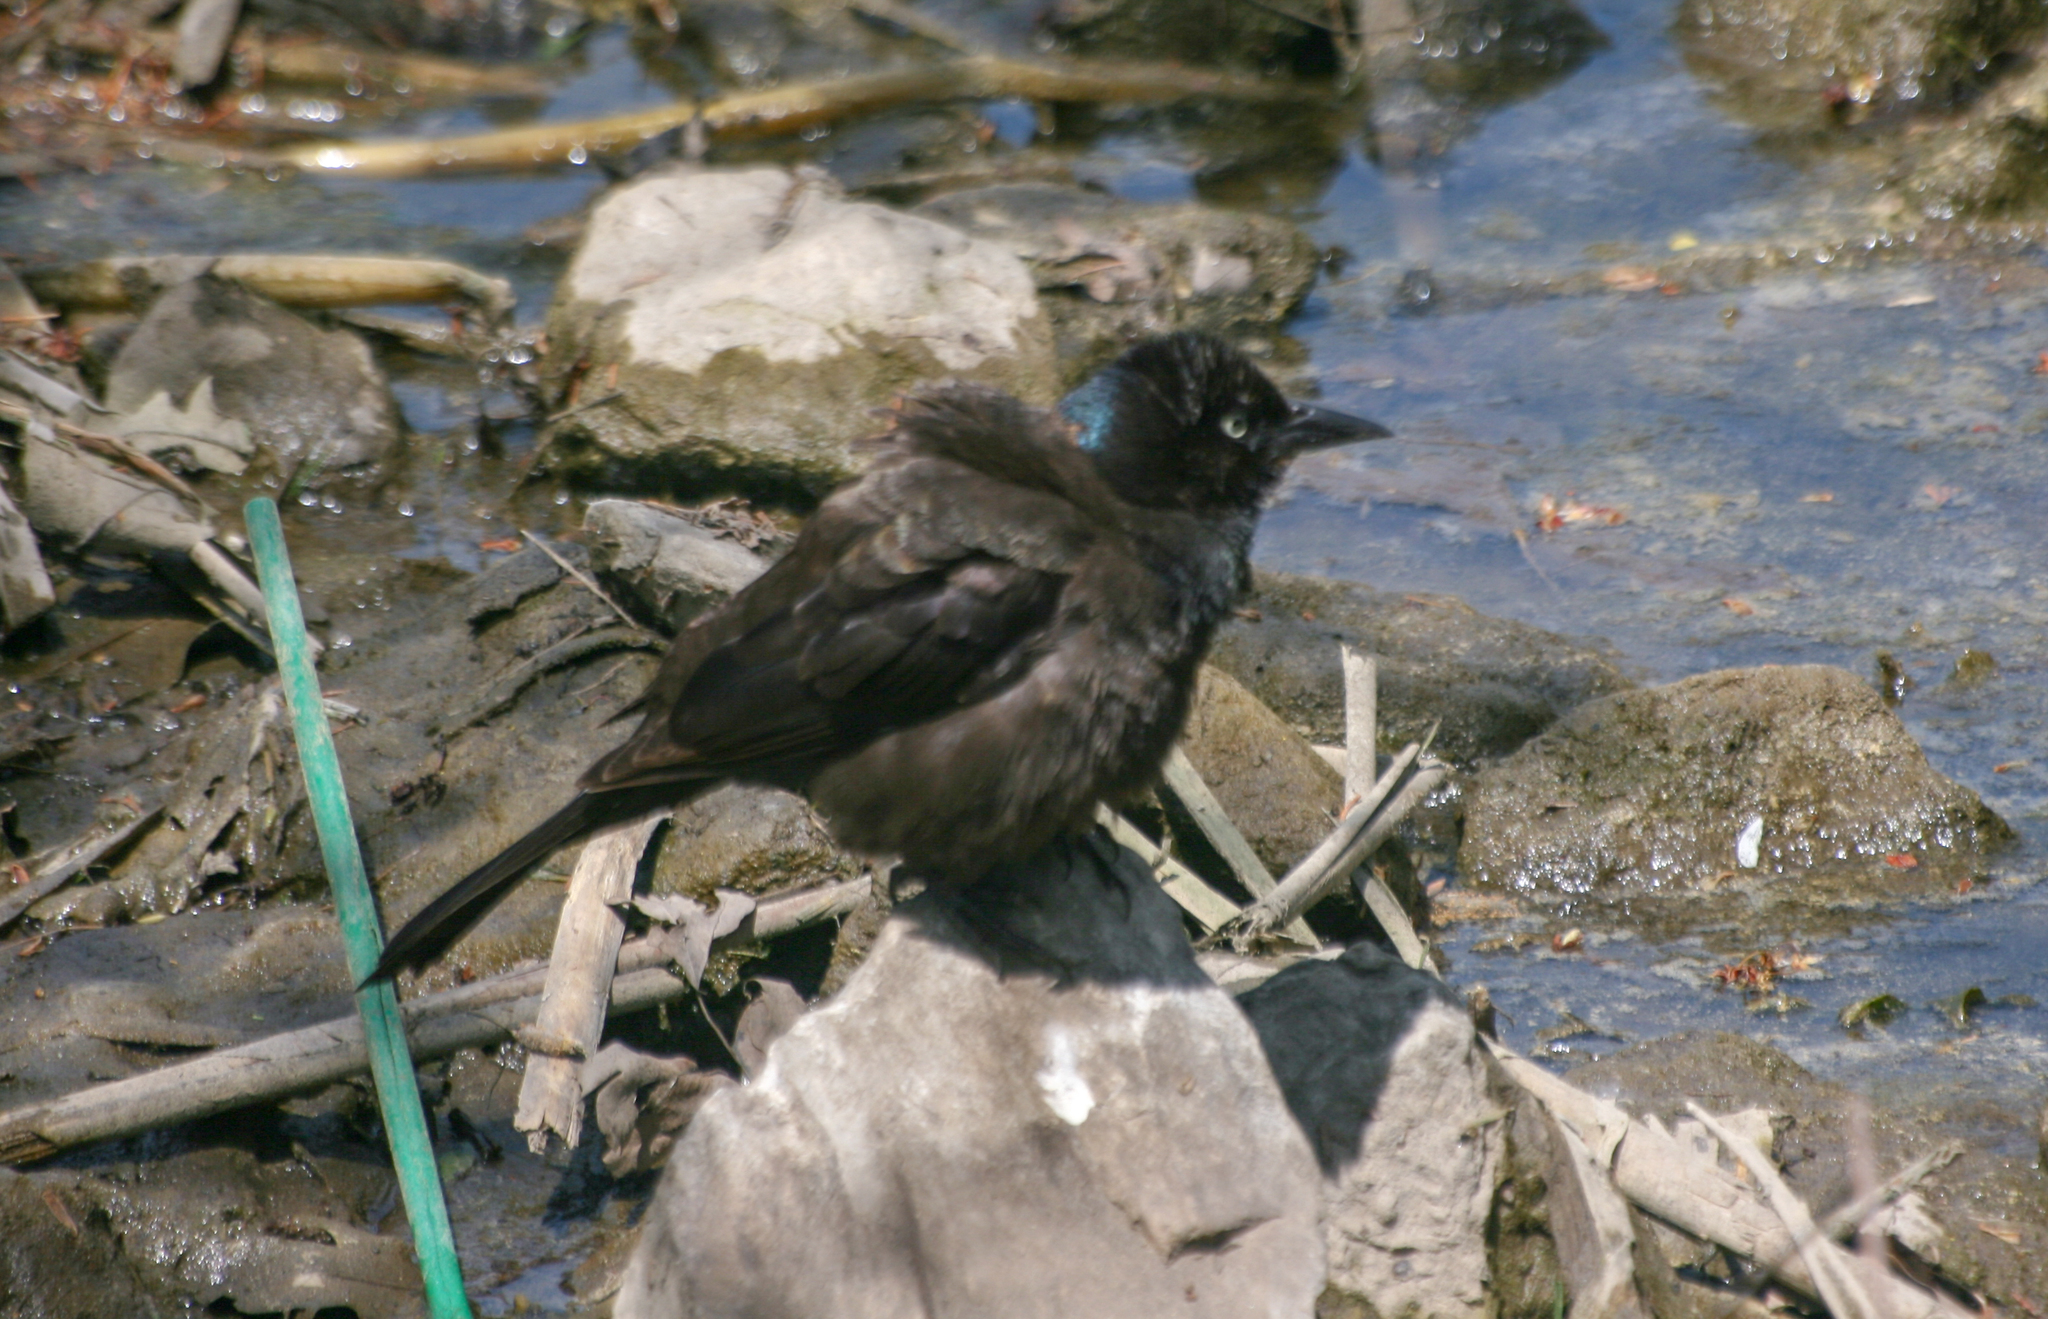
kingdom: Animalia
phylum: Chordata
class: Aves
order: Passeriformes
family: Icteridae
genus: Quiscalus
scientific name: Quiscalus quiscula
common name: Common grackle
